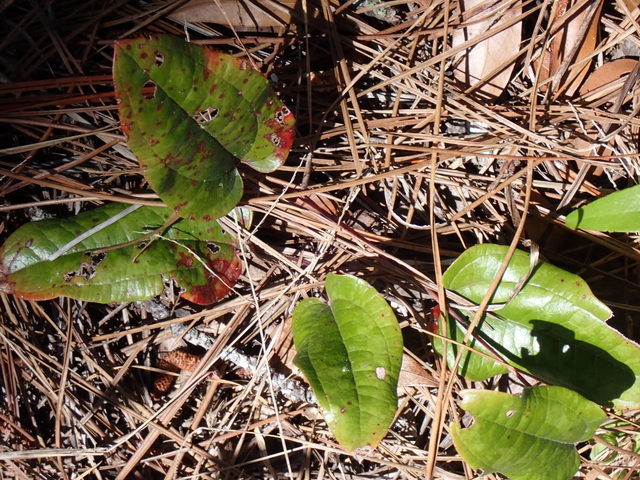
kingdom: Plantae
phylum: Tracheophyta
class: Liliopsida
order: Liliales
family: Smilacaceae
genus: Smilax
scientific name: Smilax pumila
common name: Sarsaparilla-vine
